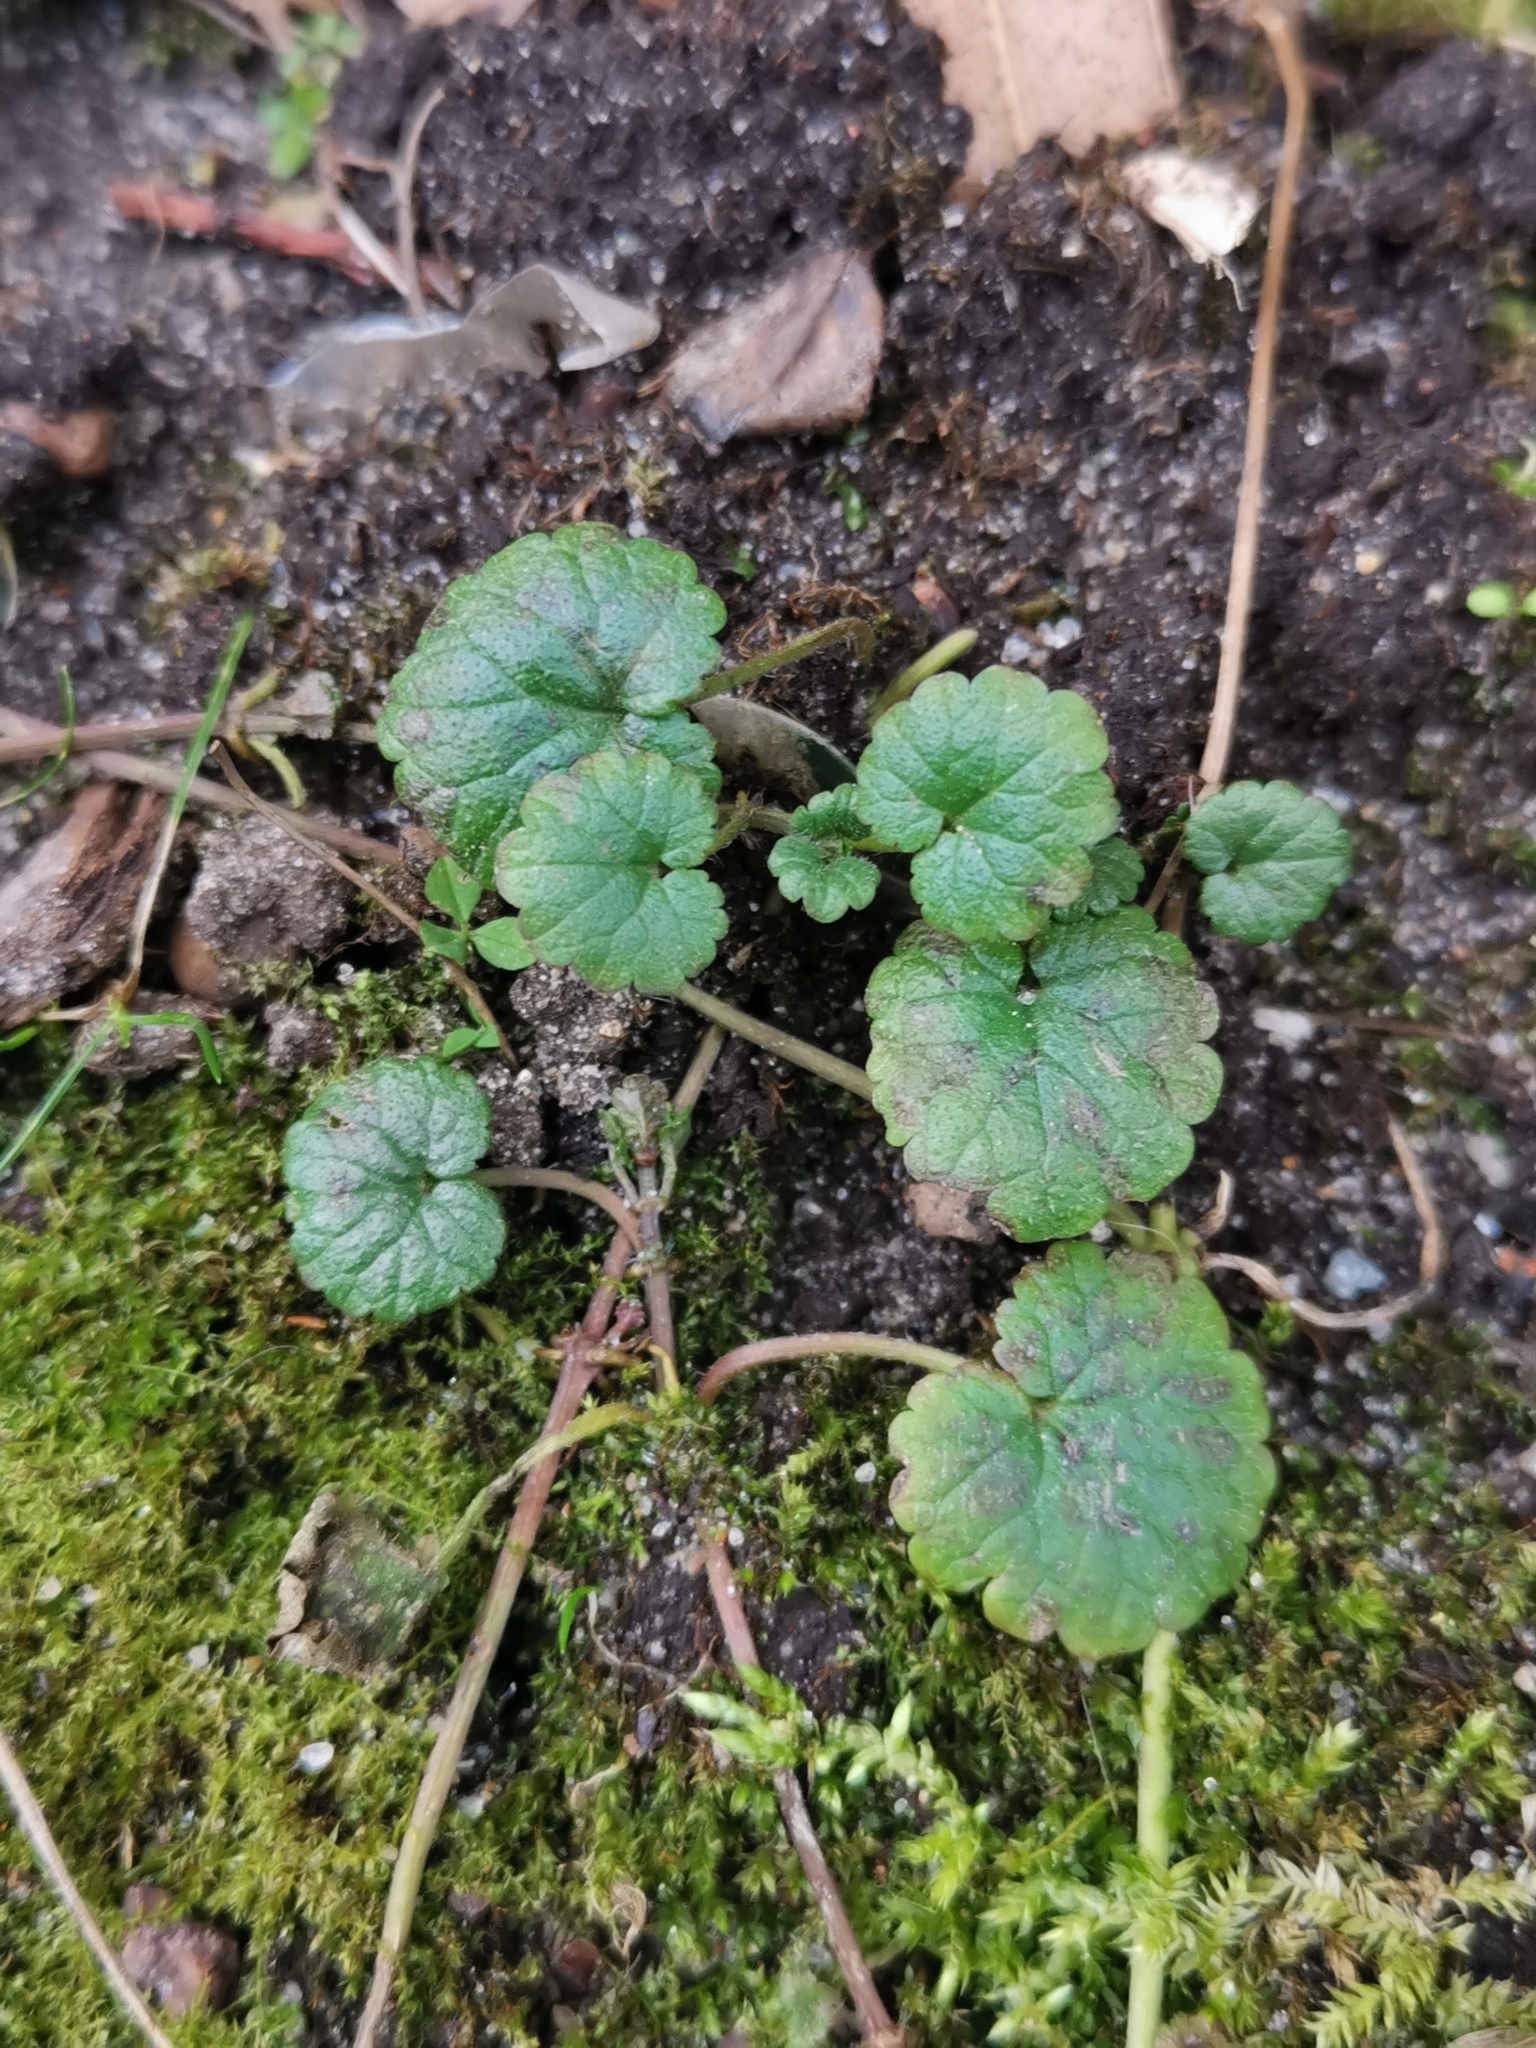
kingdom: Plantae
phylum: Tracheophyta
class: Magnoliopsida
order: Lamiales
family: Lamiaceae
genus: Glechoma
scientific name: Glechoma hederacea
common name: Ground ivy
